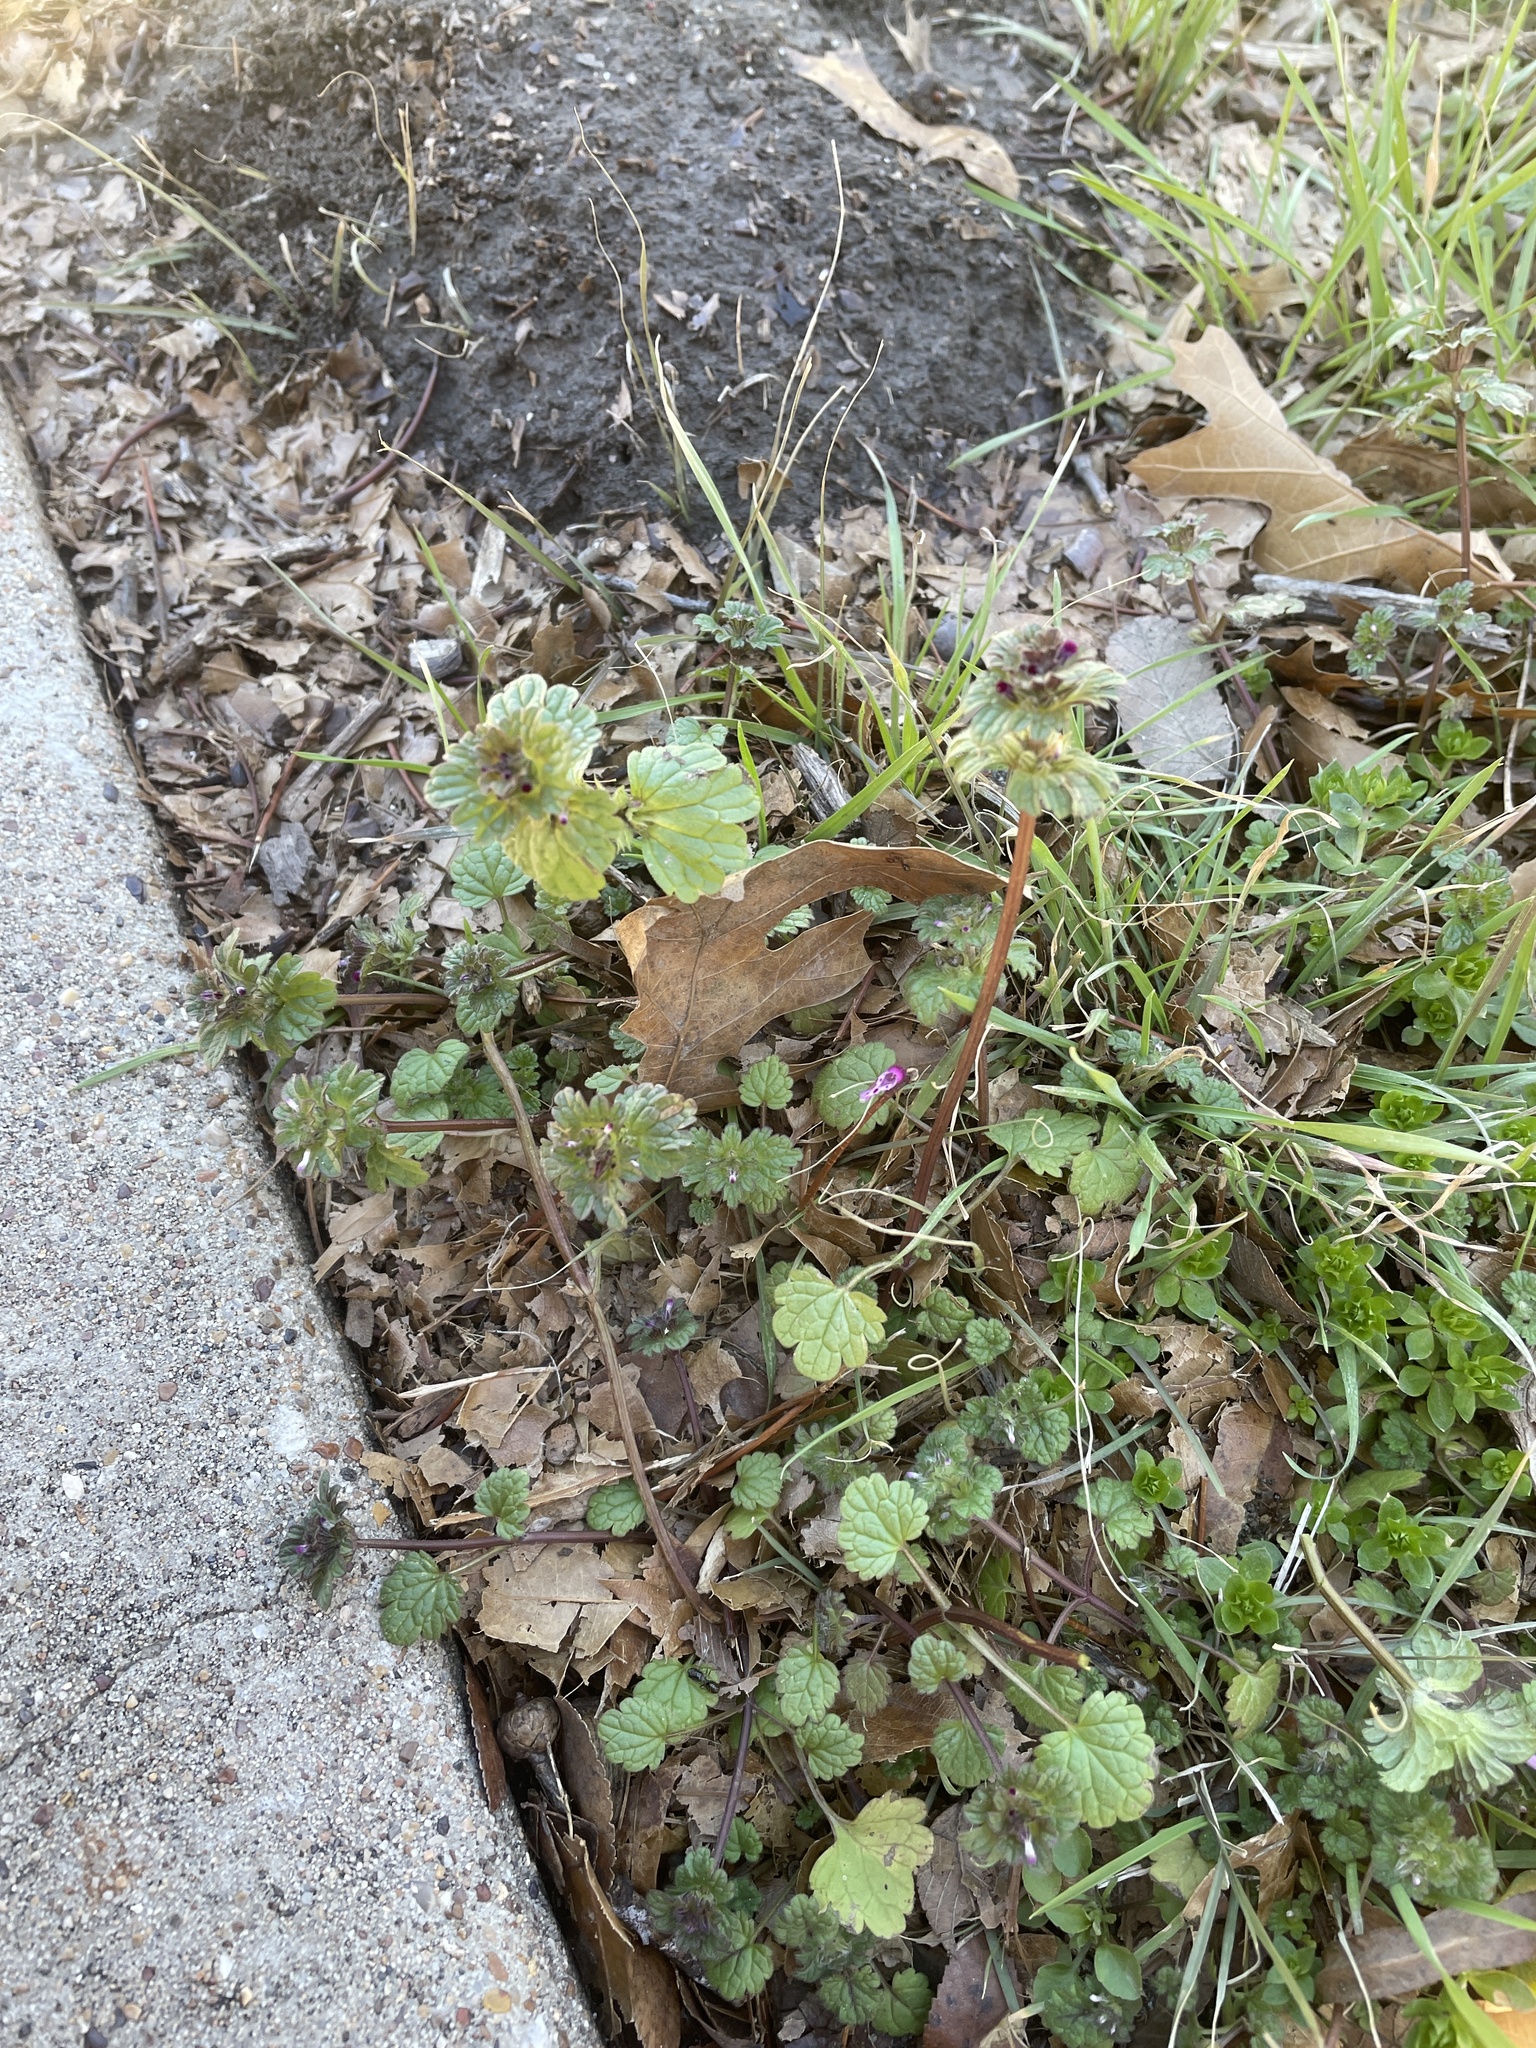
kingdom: Plantae
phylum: Tracheophyta
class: Magnoliopsida
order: Lamiales
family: Lamiaceae
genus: Lamium
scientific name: Lamium amplexicaule
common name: Henbit dead-nettle
